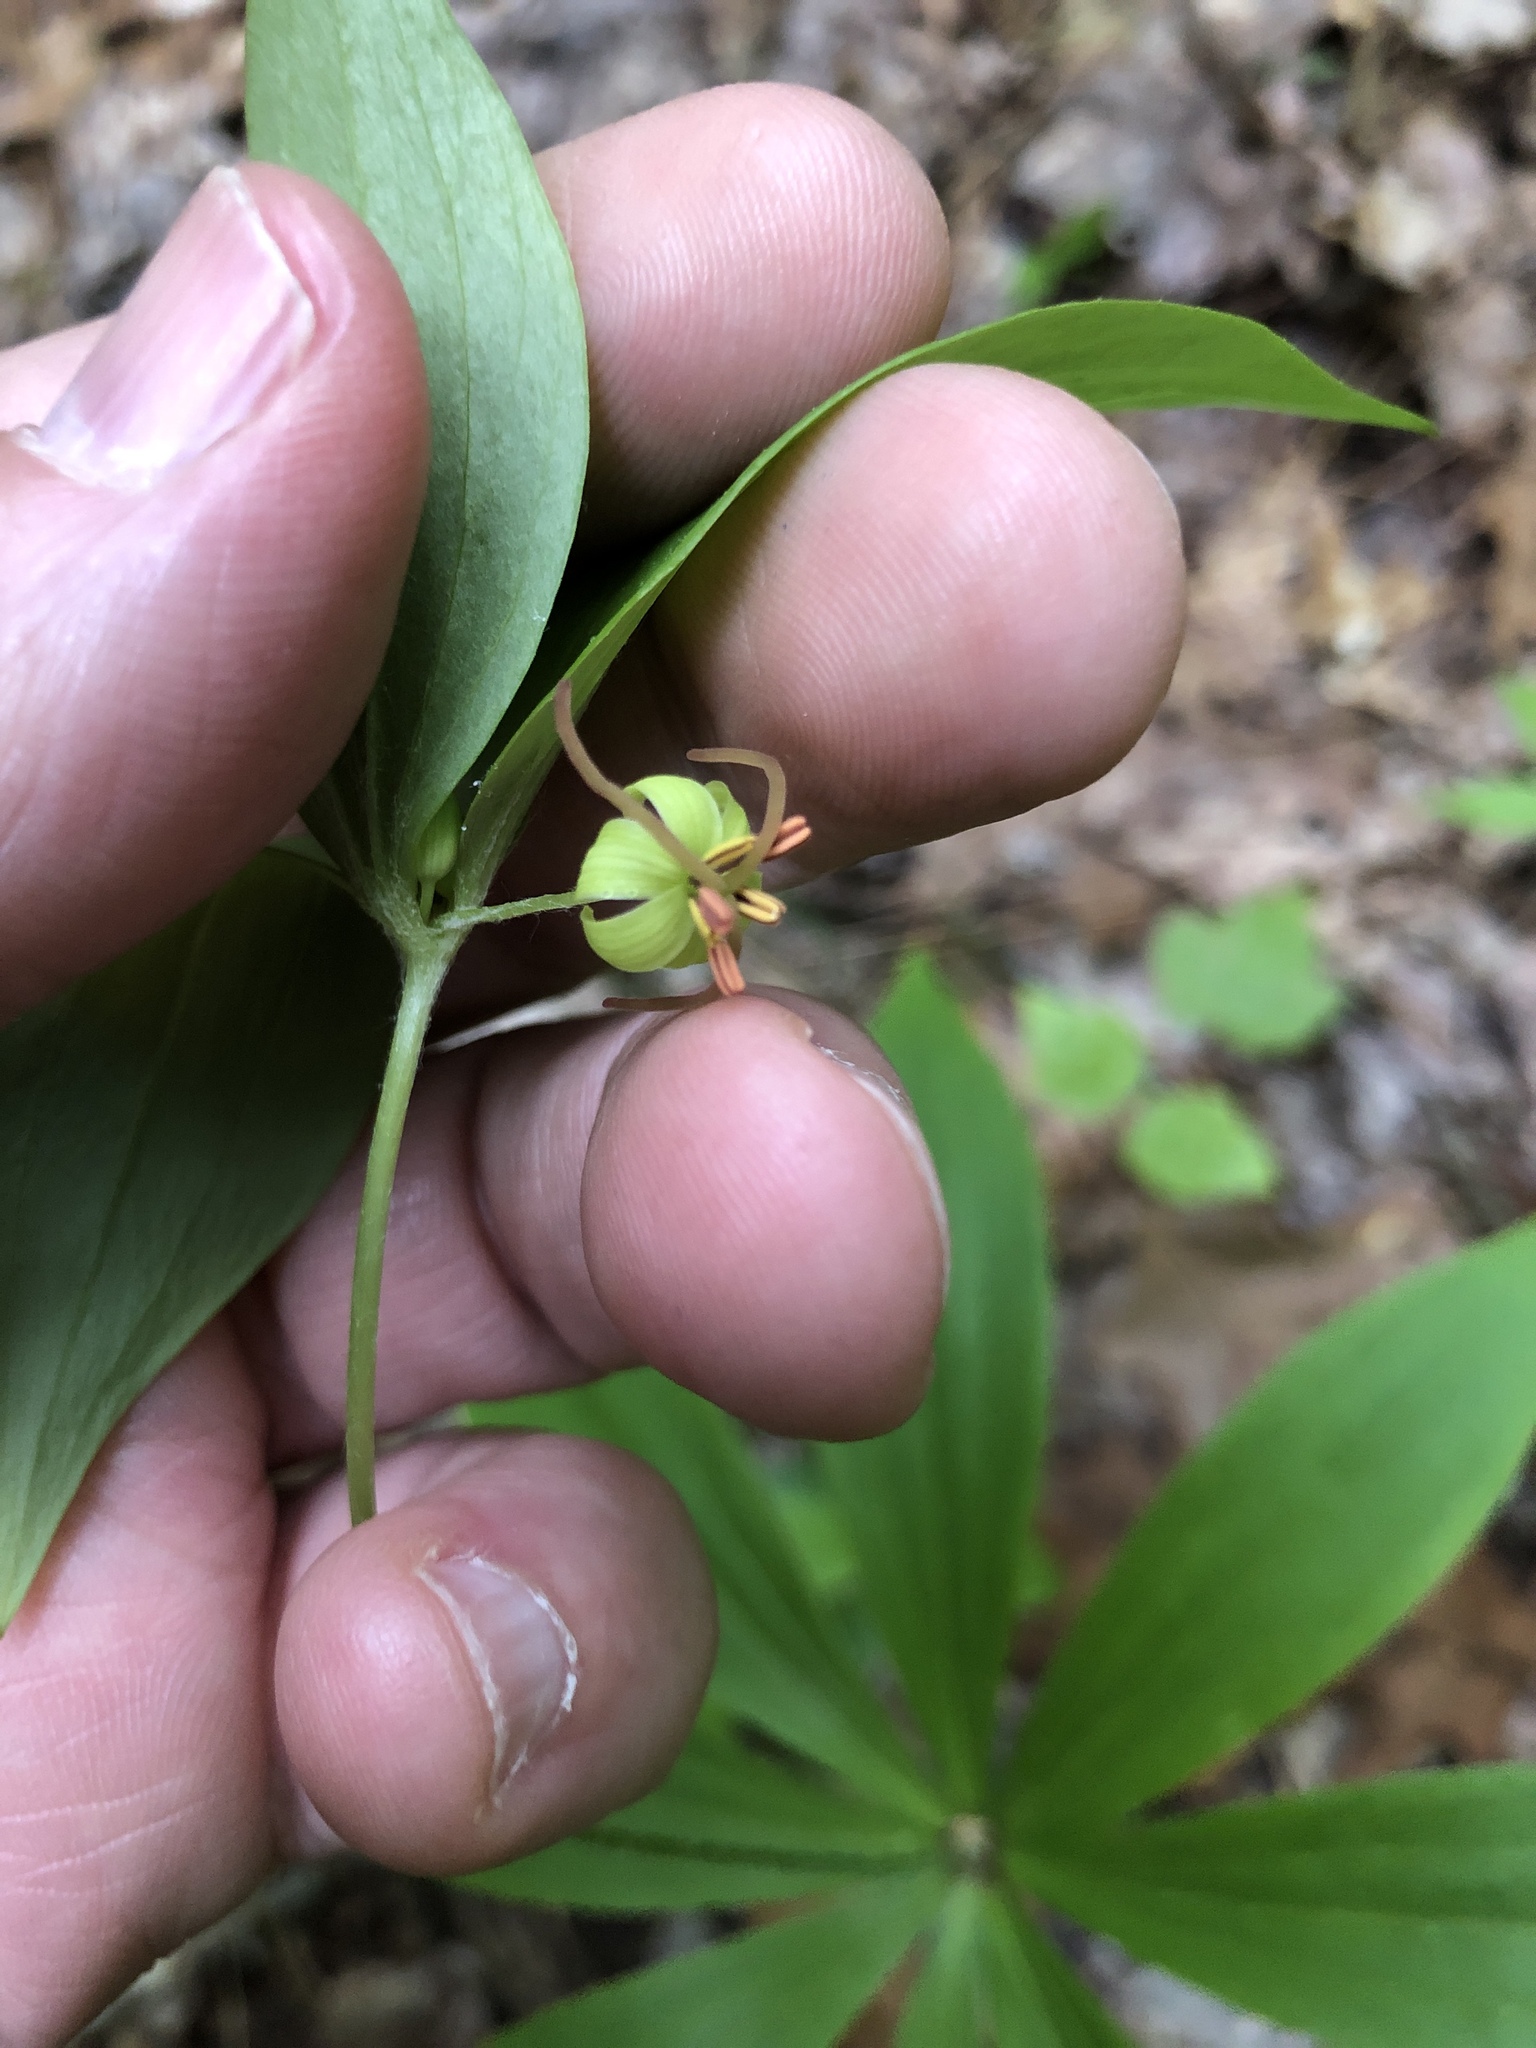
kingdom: Plantae
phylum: Tracheophyta
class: Liliopsida
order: Liliales
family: Liliaceae
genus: Medeola
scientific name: Medeola virginiana
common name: Indian cucumber-root
